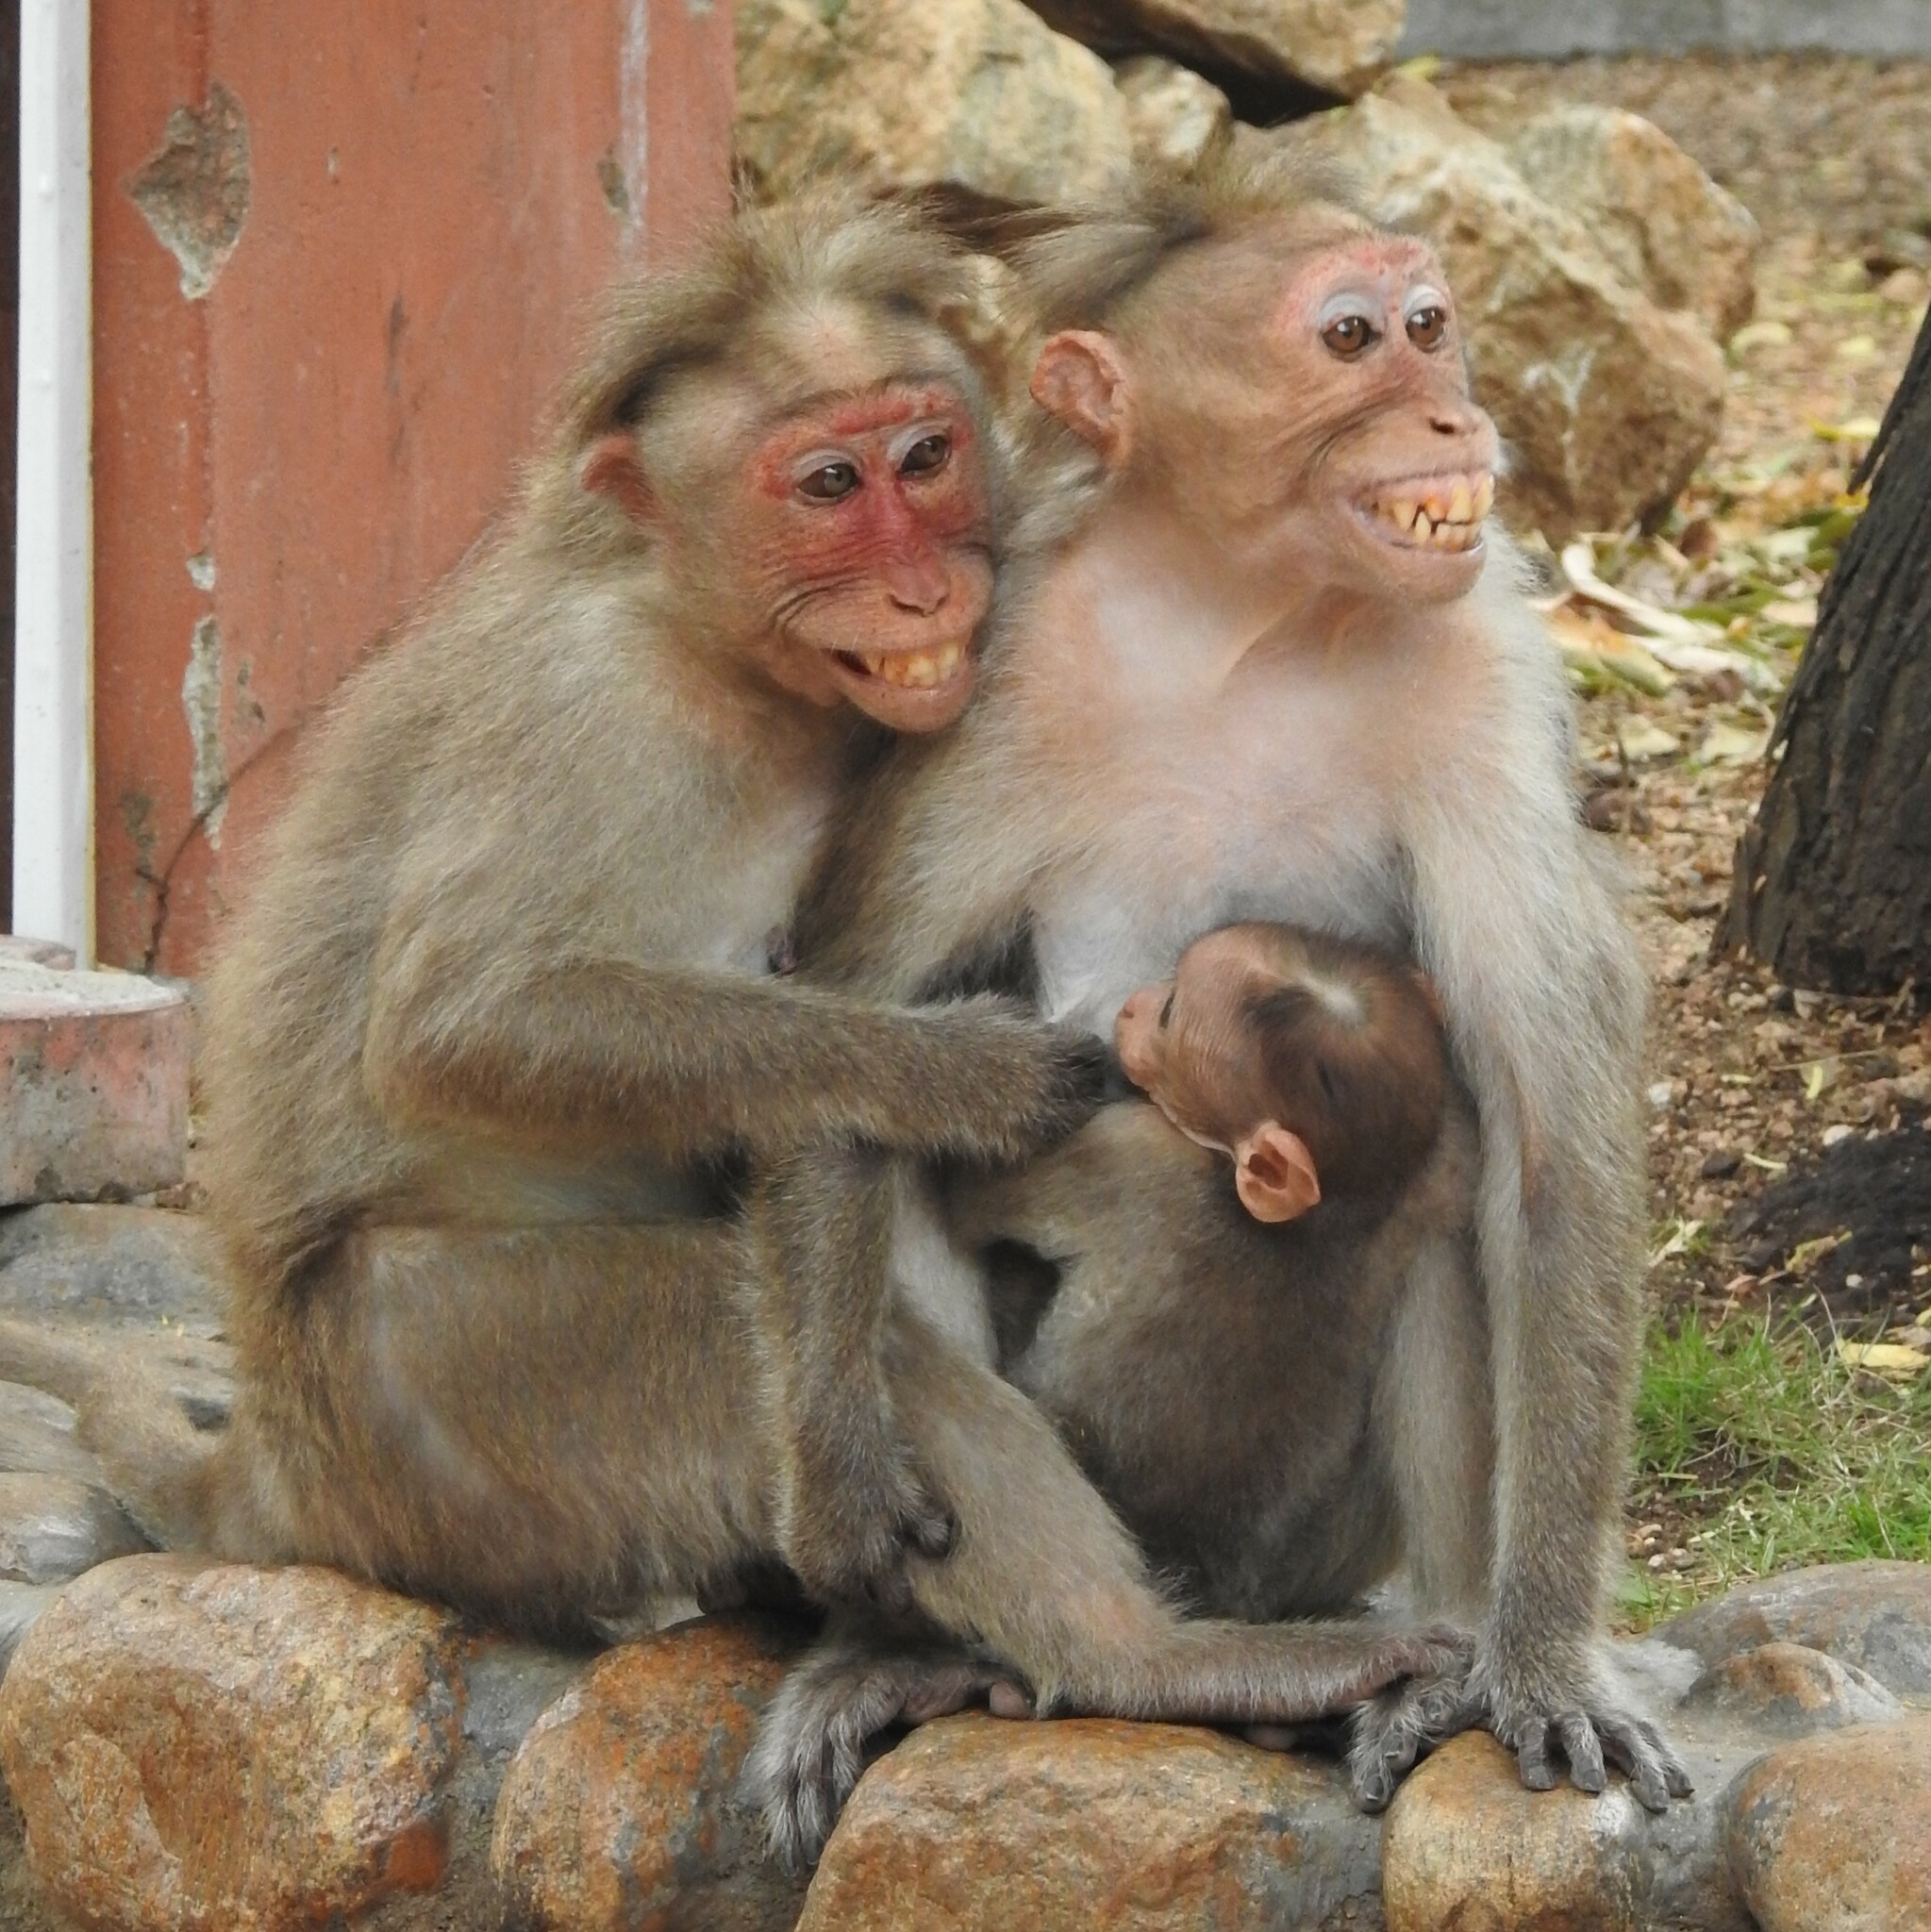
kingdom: Animalia
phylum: Chordata
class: Mammalia
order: Primates
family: Cercopithecidae
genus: Macaca
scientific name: Macaca radiata
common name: Bonnet macaque
